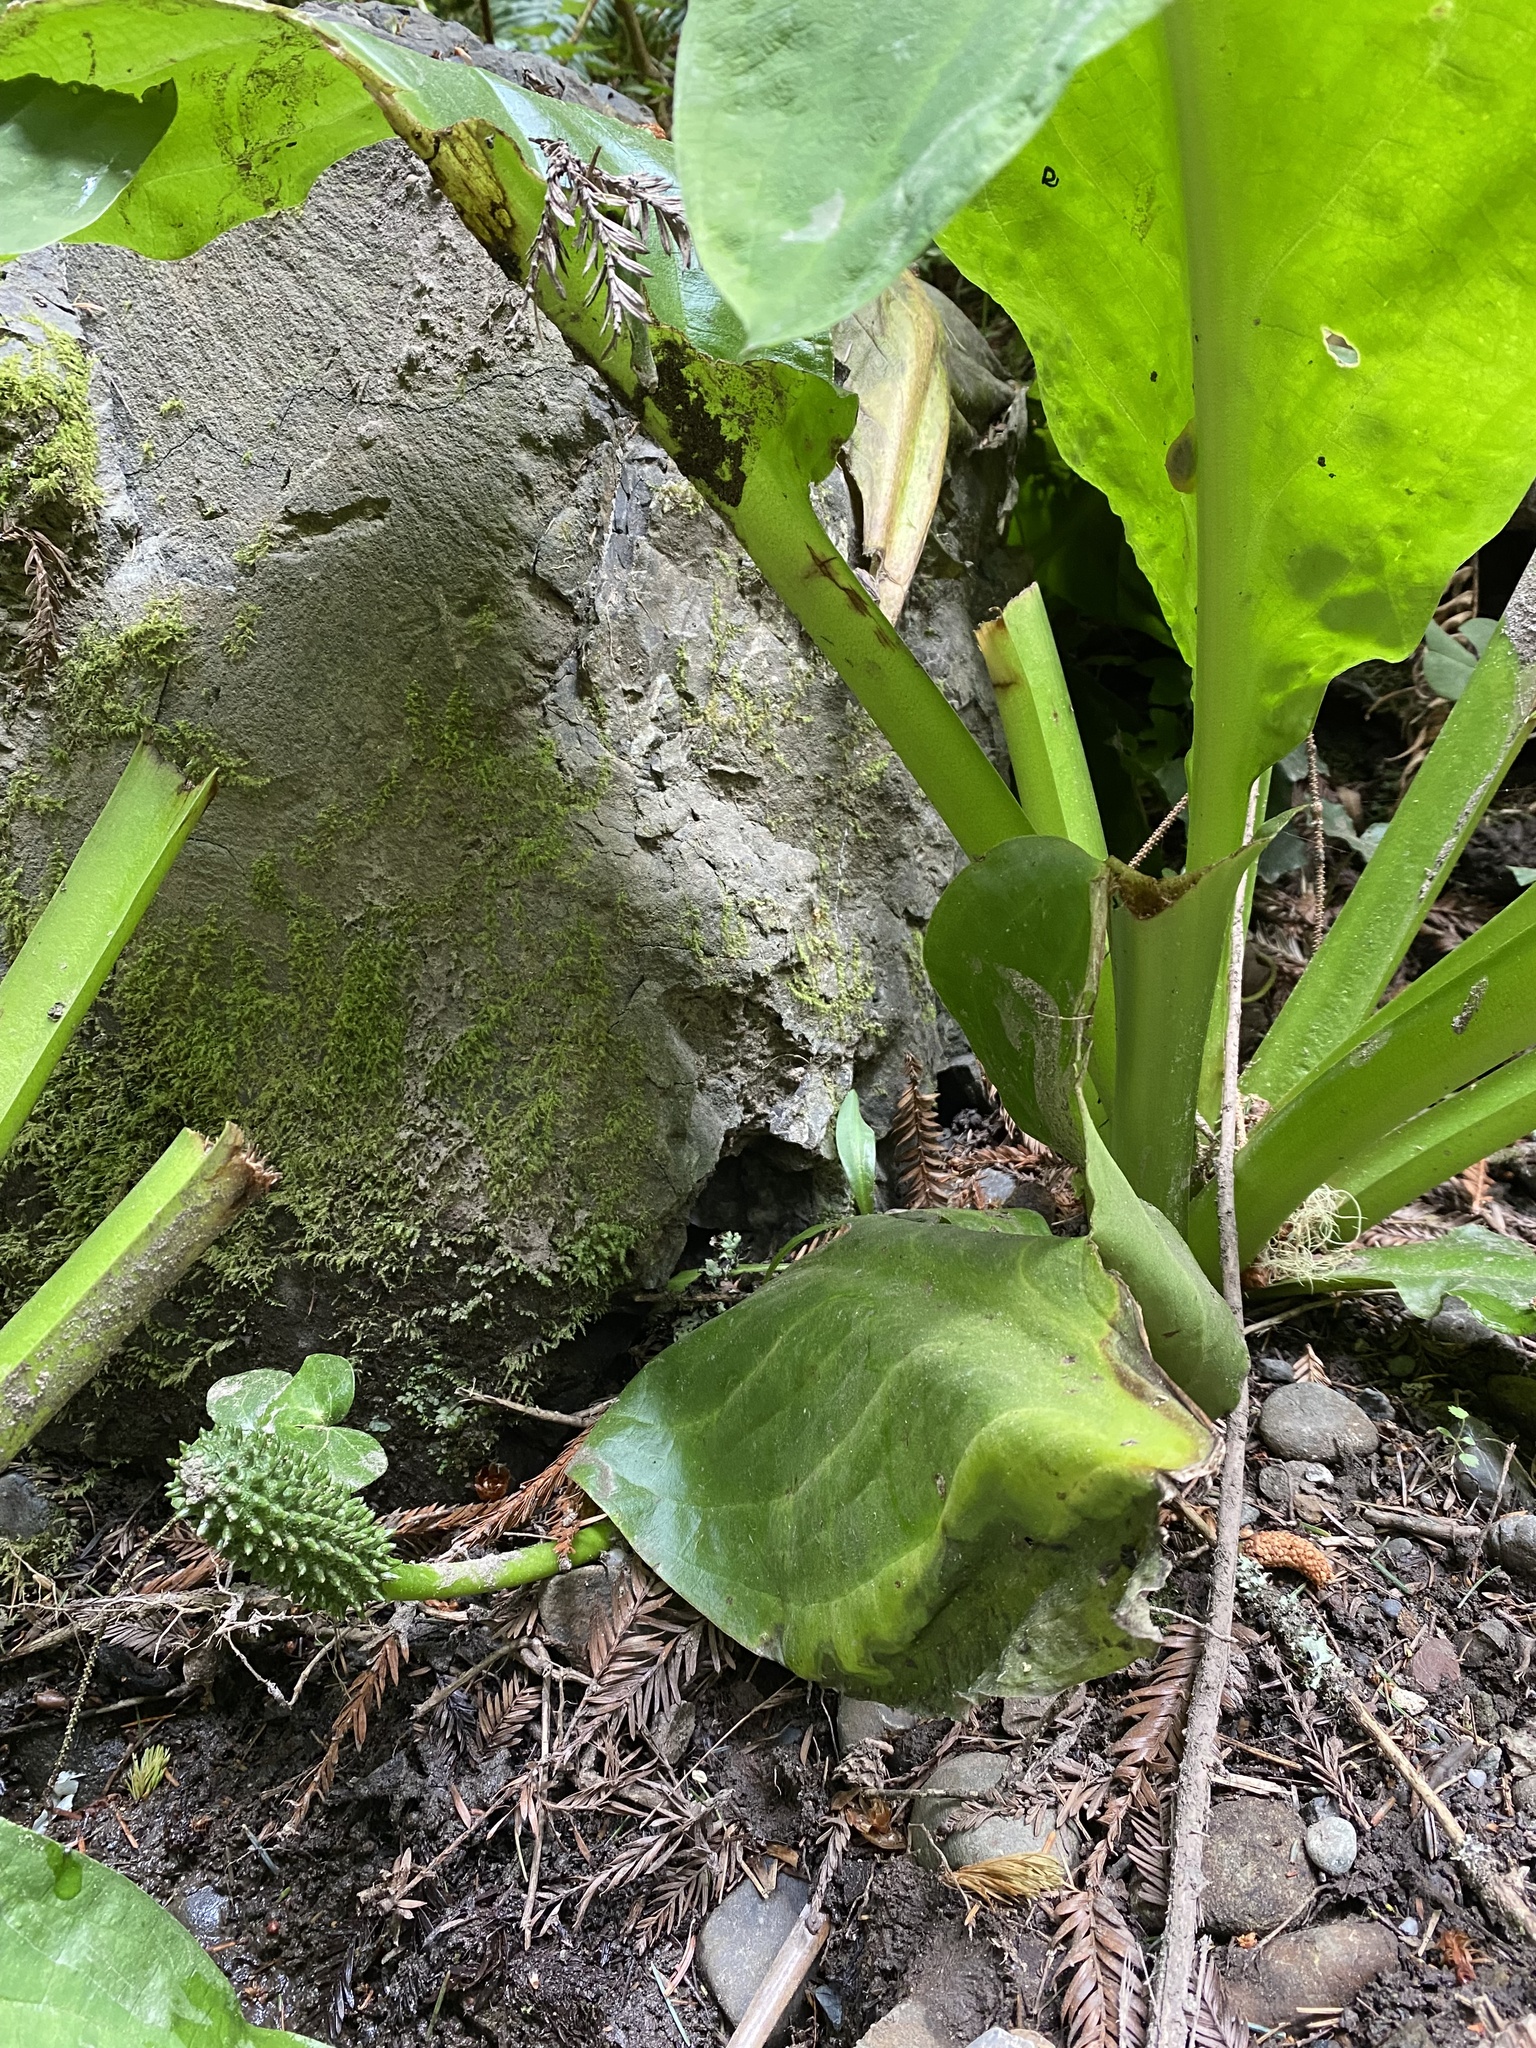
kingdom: Plantae
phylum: Tracheophyta
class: Liliopsida
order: Alismatales
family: Araceae
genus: Lysichiton
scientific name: Lysichiton americanus
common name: American skunk cabbage
